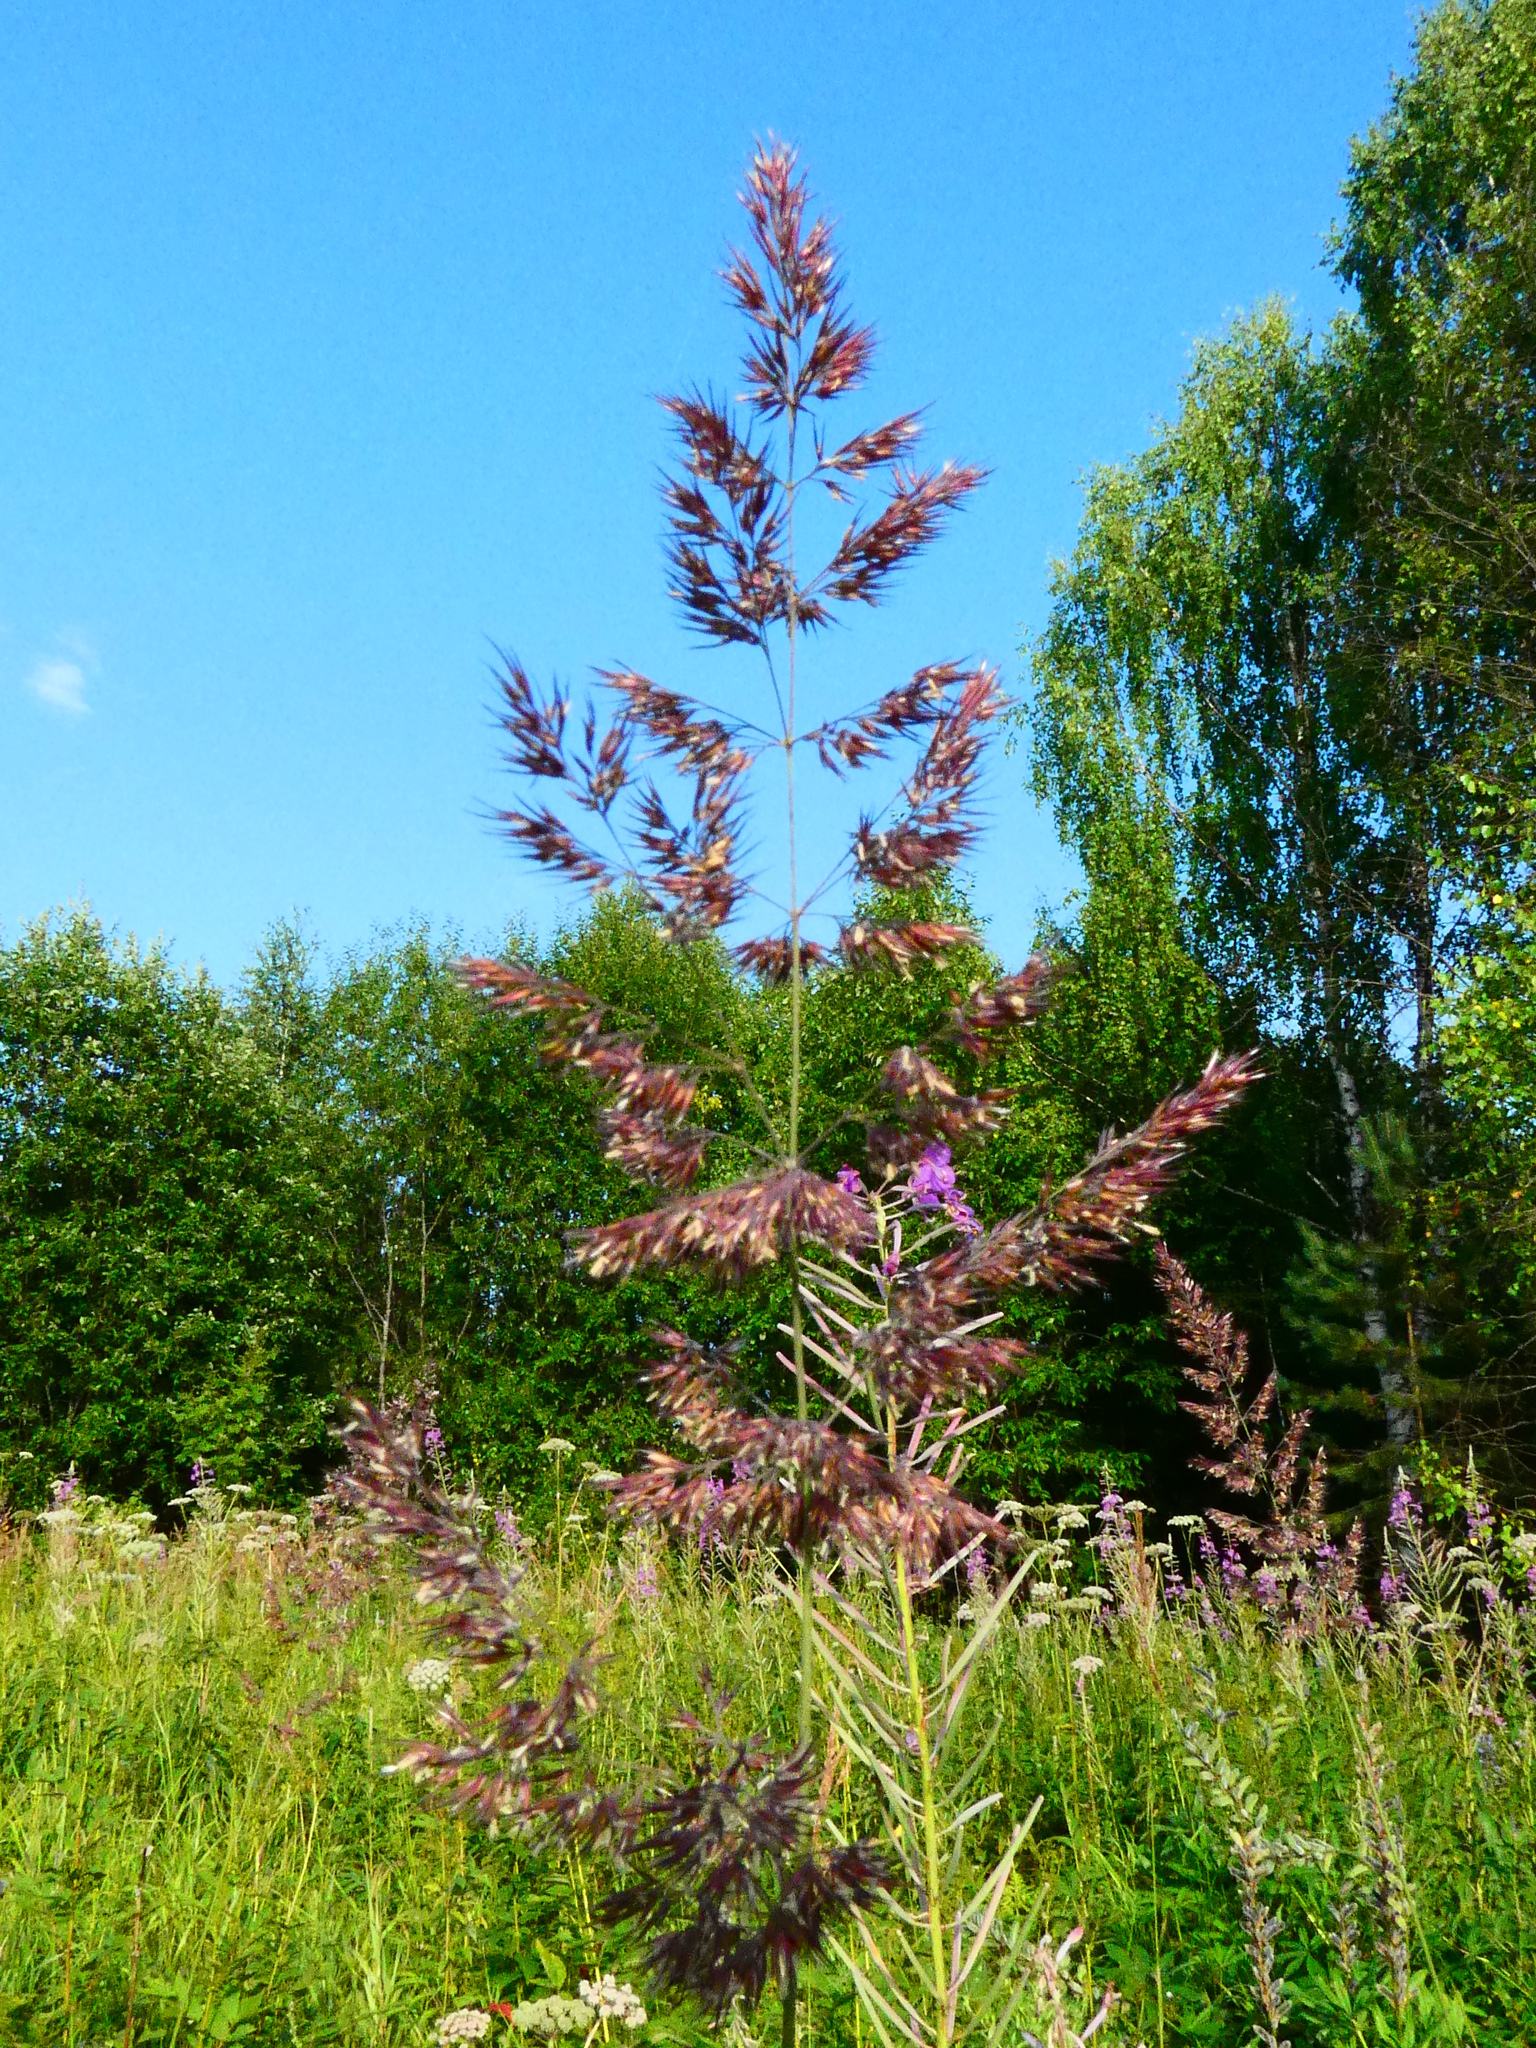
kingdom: Plantae
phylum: Tracheophyta
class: Liliopsida
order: Poales
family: Poaceae
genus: Calamagrostis
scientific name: Calamagrostis epigejos
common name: Wood small-reed
